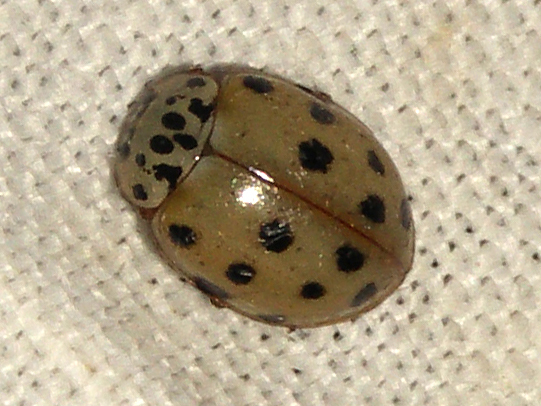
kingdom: Animalia
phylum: Arthropoda
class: Insecta
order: Coleoptera
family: Coccinellidae
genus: Harmonia
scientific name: Harmonia quadripunctata
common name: Cream-streaked ladybird
